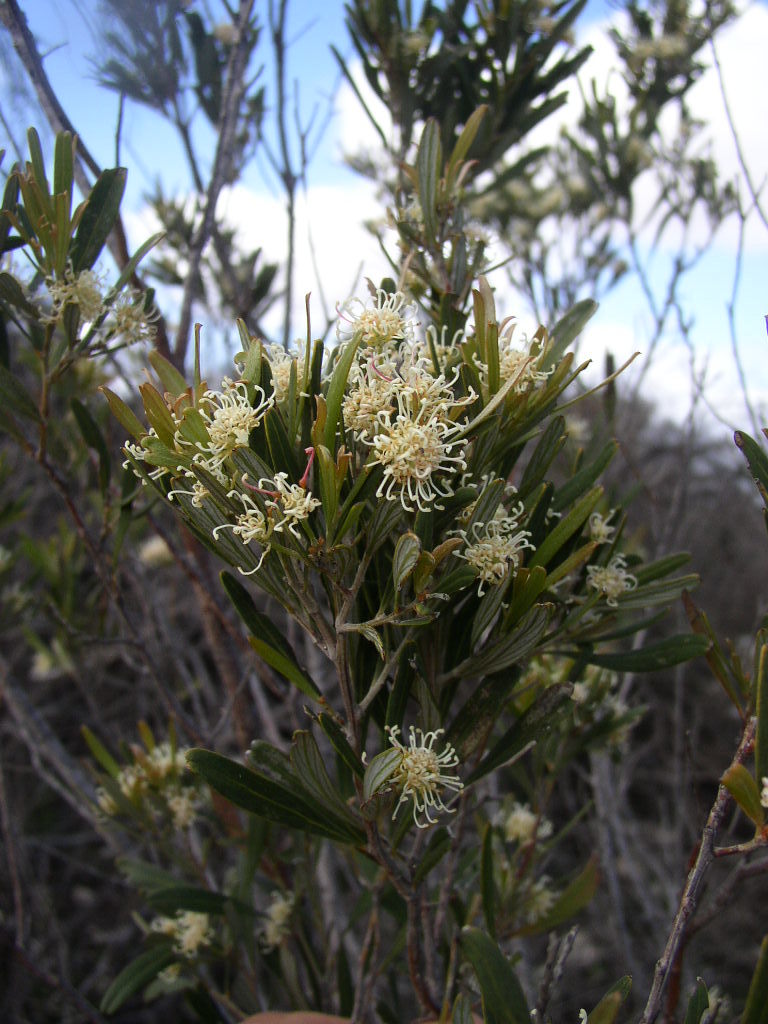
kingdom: Plantae
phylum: Tracheophyta
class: Magnoliopsida
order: Proteales
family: Proteaceae
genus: Grevillea
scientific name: Grevillea argyrophylla
